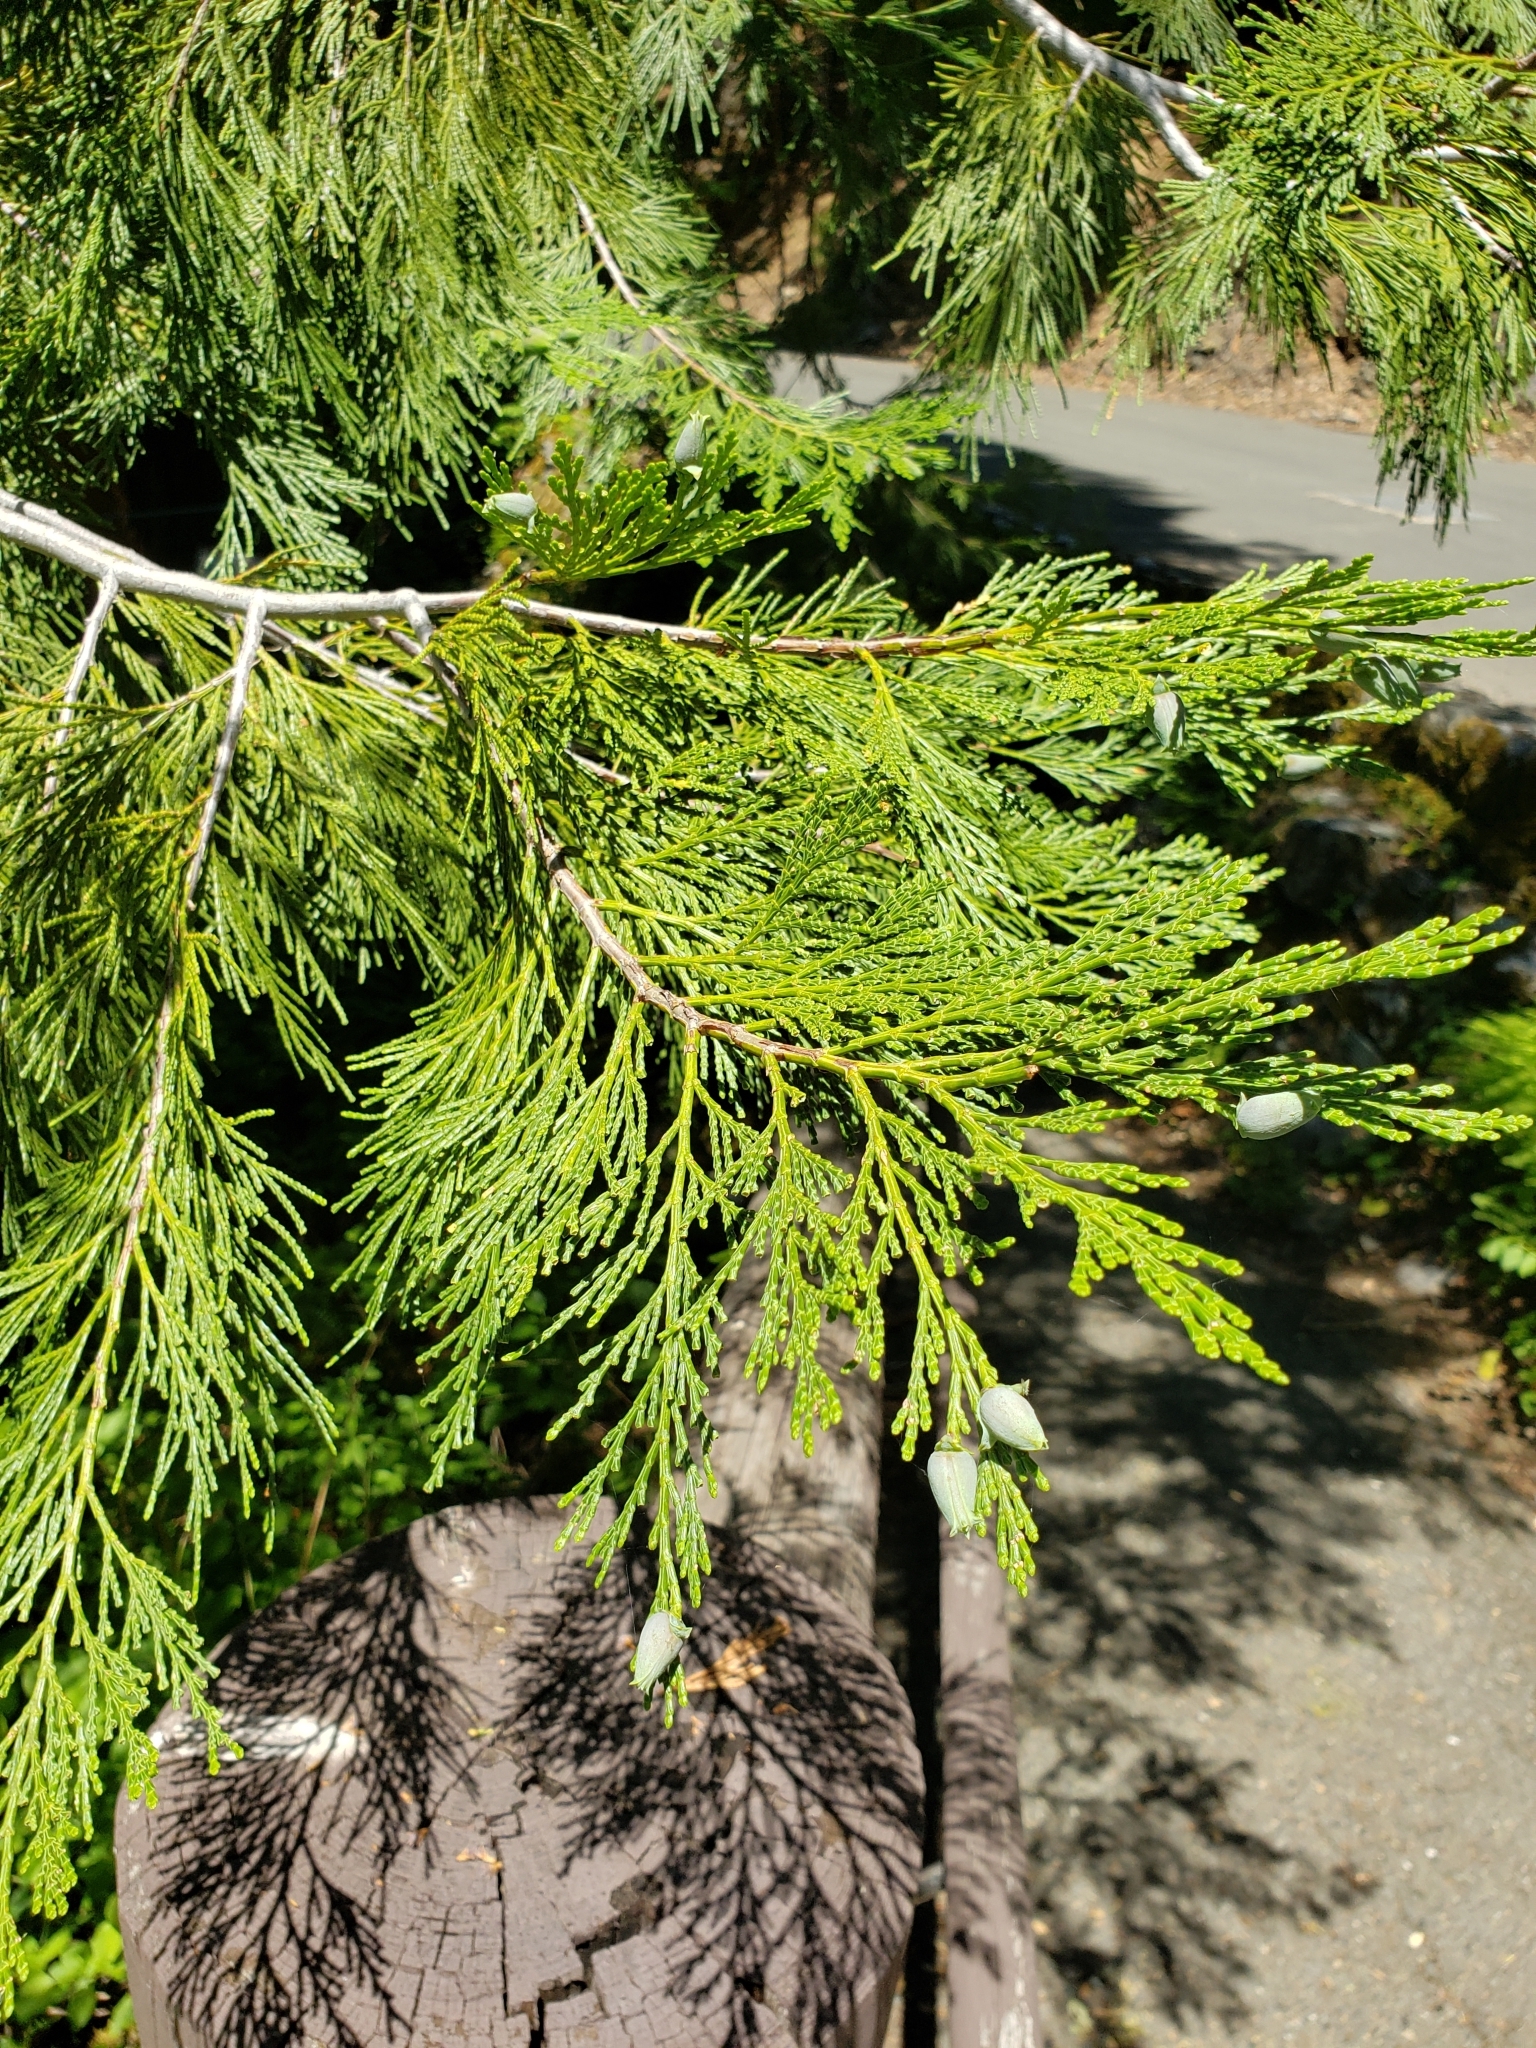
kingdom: Plantae
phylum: Tracheophyta
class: Pinopsida
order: Pinales
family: Cupressaceae
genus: Calocedrus
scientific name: Calocedrus decurrens
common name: Californian incense-cedar
